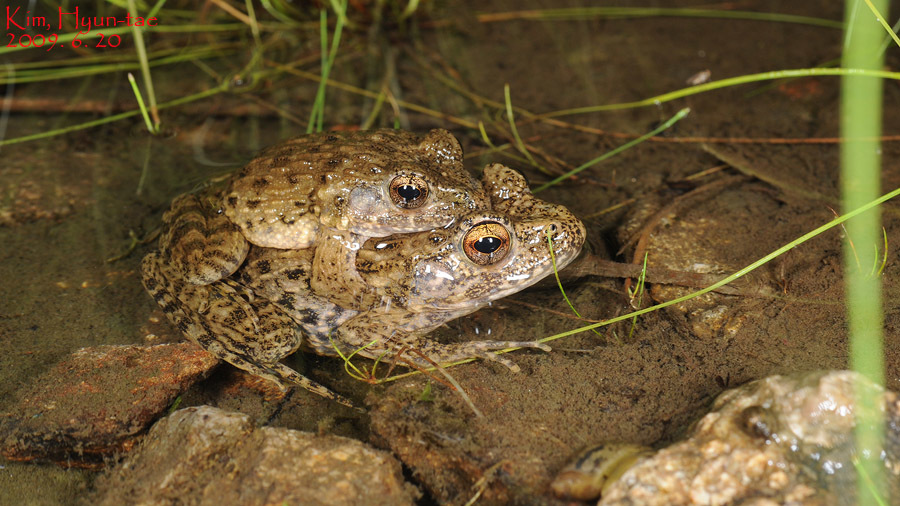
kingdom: Animalia
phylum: Chordata
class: Amphibia
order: Anura
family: Ranidae
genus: Glandirana
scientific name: Glandirana emeljanovi
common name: Northeast china rough-skinned frog
